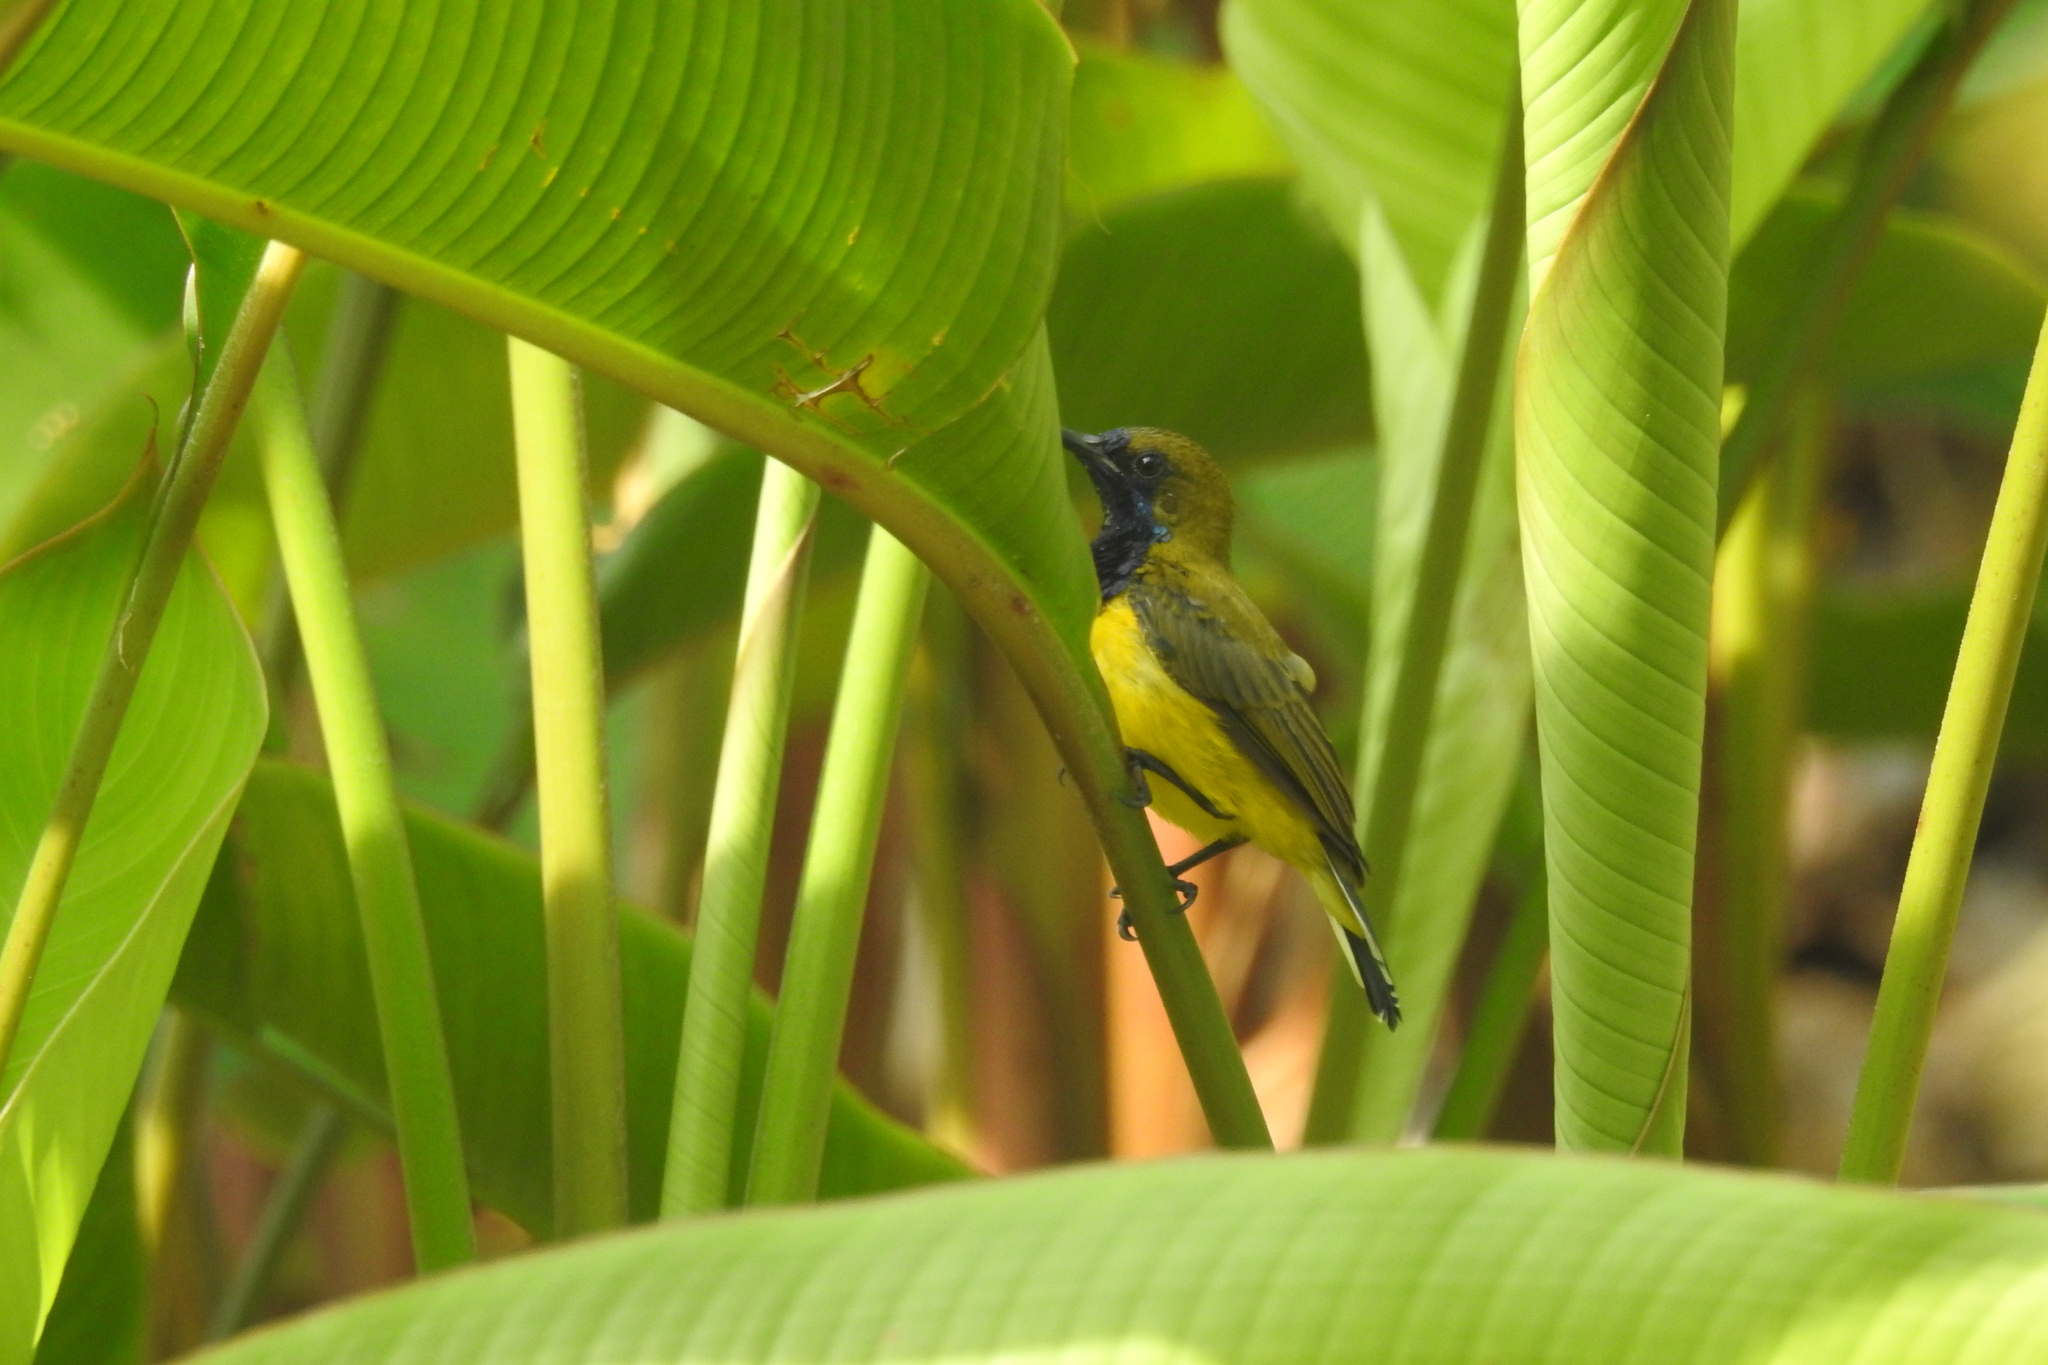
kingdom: Animalia
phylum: Chordata
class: Aves
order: Passeriformes
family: Nectariniidae
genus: Cinnyris
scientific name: Cinnyris
